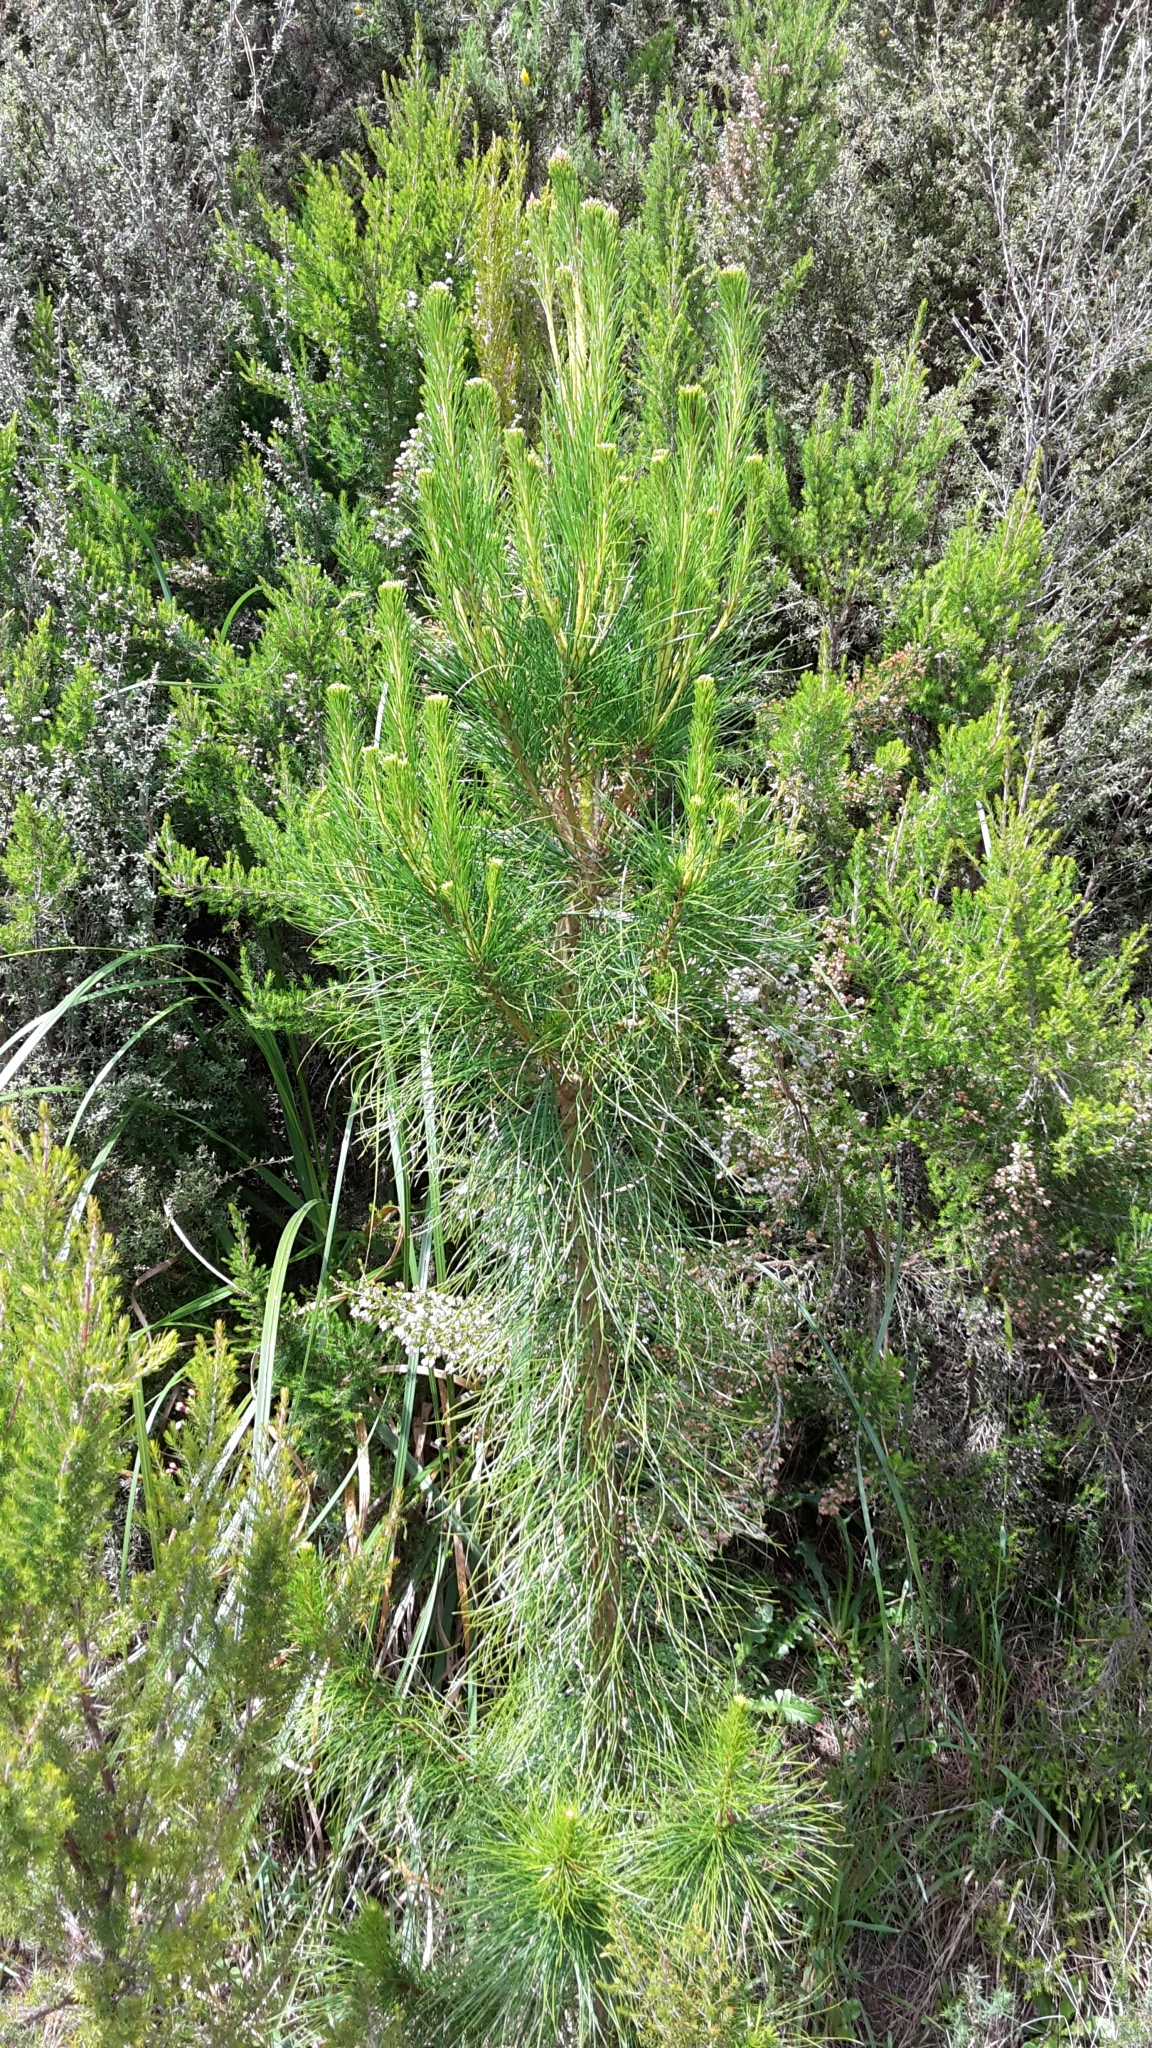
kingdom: Plantae
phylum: Tracheophyta
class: Pinopsida
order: Pinales
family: Pinaceae
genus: Pinus
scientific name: Pinus radiata
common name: Monterey pine
